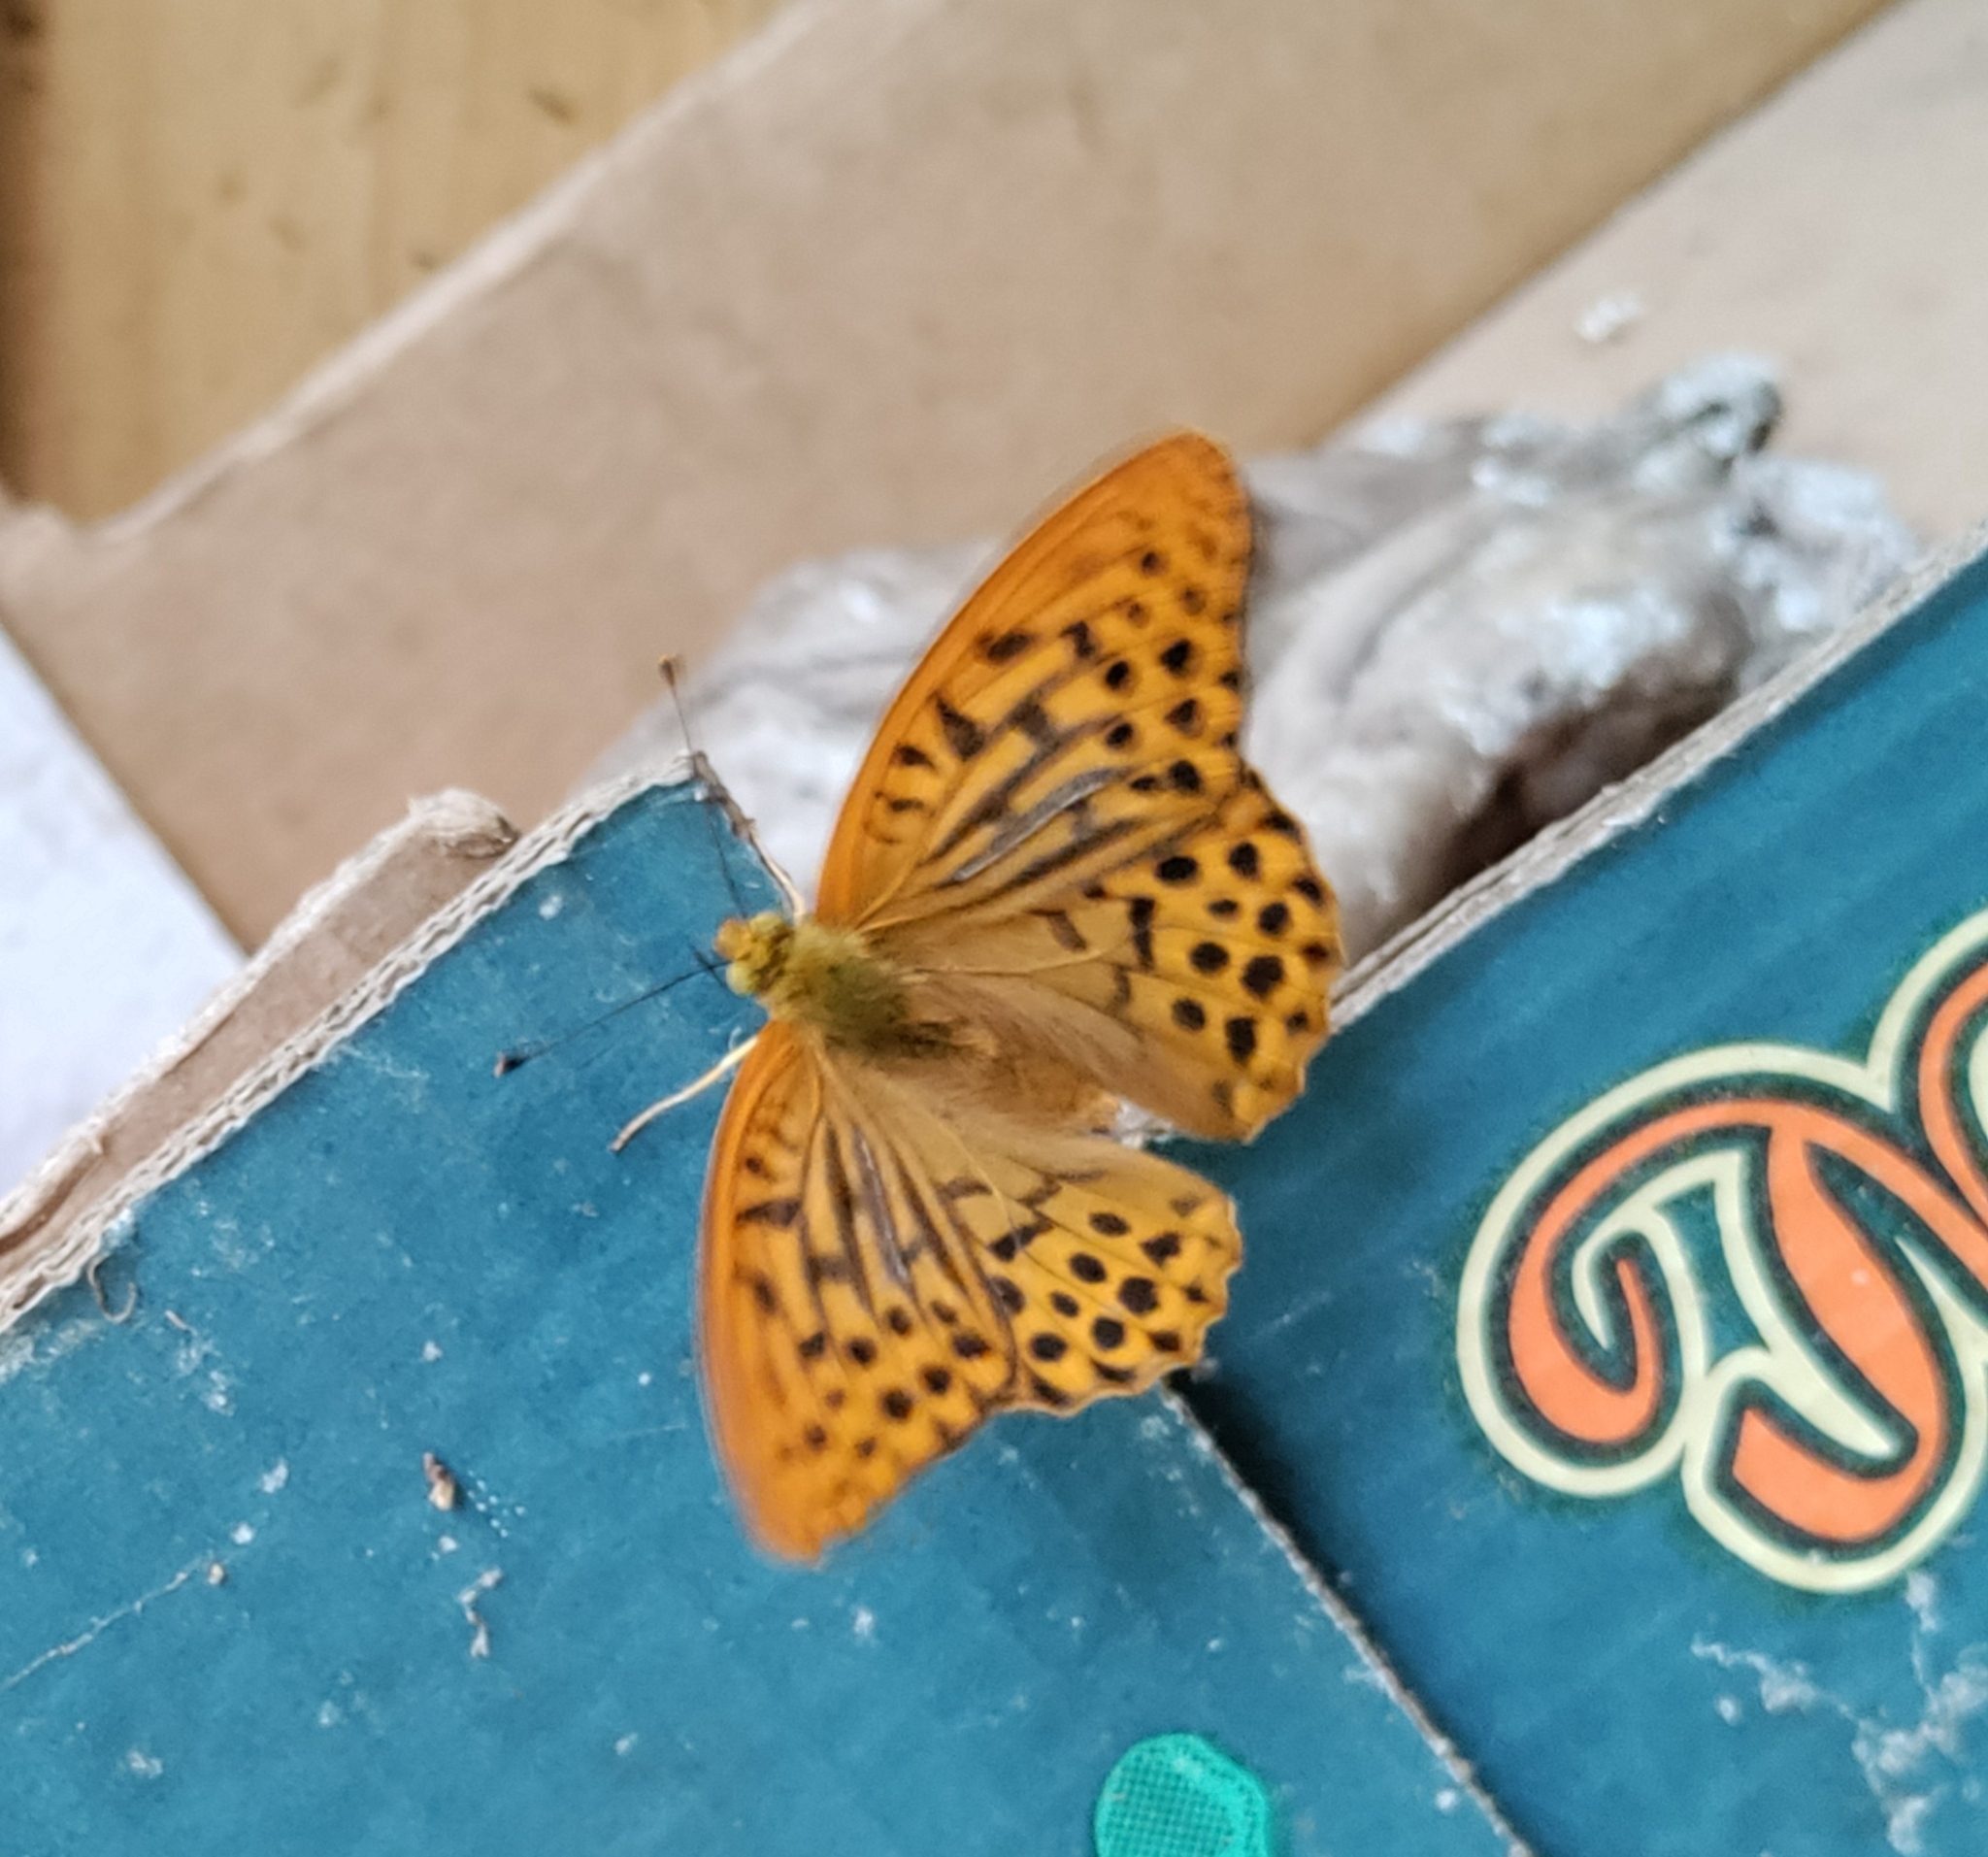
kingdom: Animalia
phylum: Arthropoda
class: Insecta
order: Lepidoptera
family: Nymphalidae
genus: Argynnis
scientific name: Argynnis paphia
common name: Silver-washed fritillary
